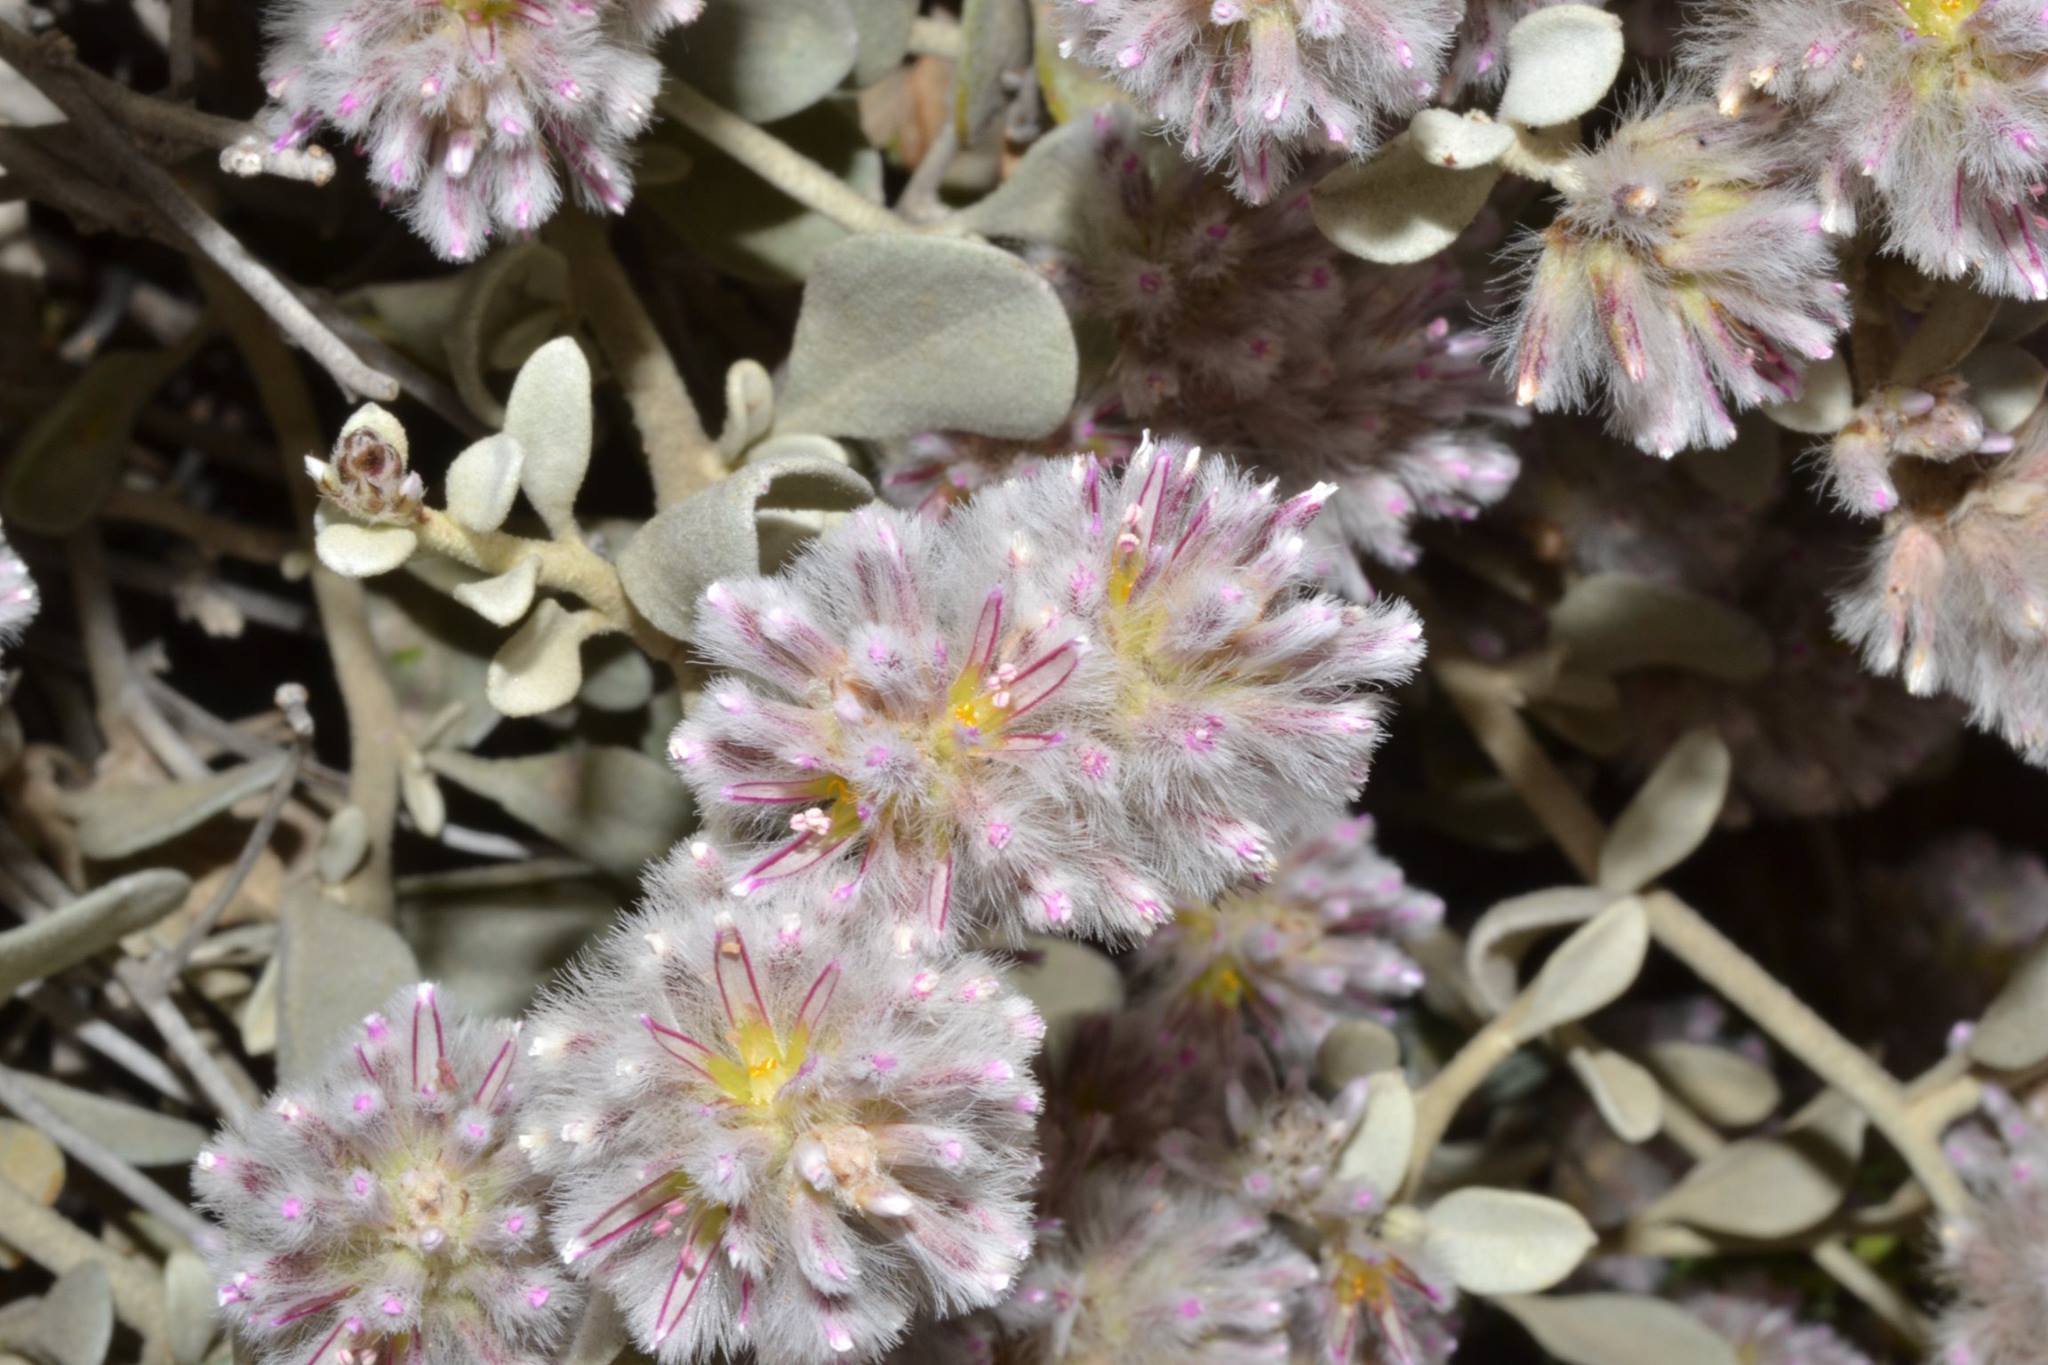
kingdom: Plantae
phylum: Tracheophyta
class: Magnoliopsida
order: Caryophyllales
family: Amaranthaceae
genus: Ptilotus
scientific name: Ptilotus obovatus
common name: Cottonbush
